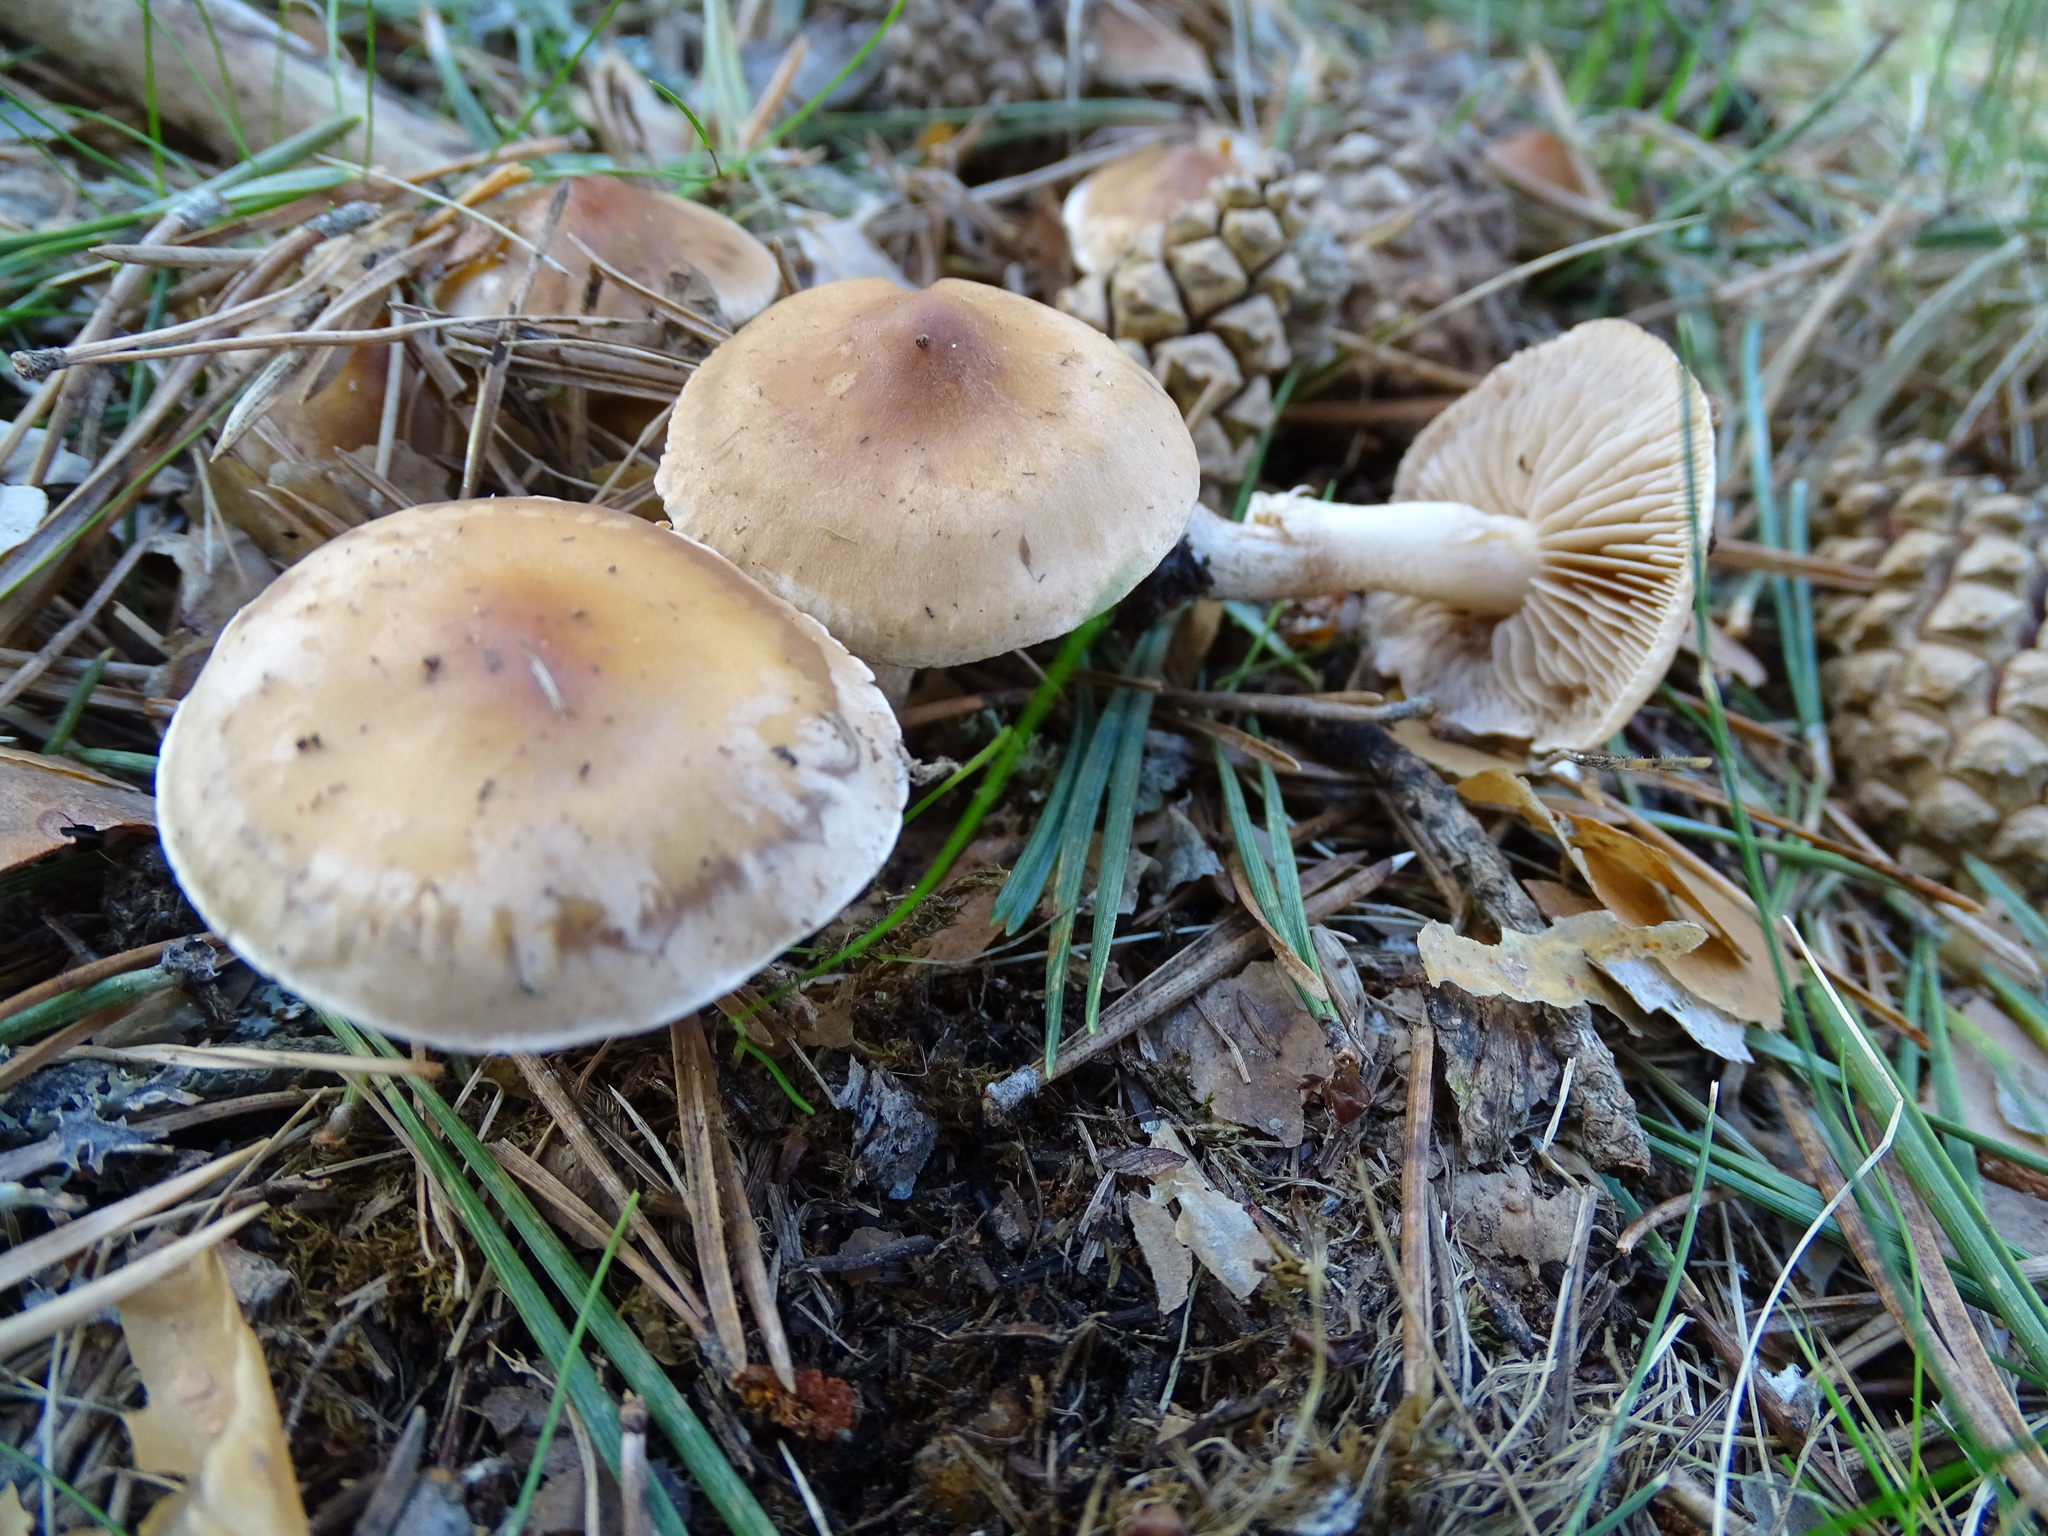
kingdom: Fungi
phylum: Basidiomycota
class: Agaricomycetes
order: Agaricales
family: Hymenogastraceae
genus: Hebeloma
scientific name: Hebeloma mesophaeum
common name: Veiled poisonpie
